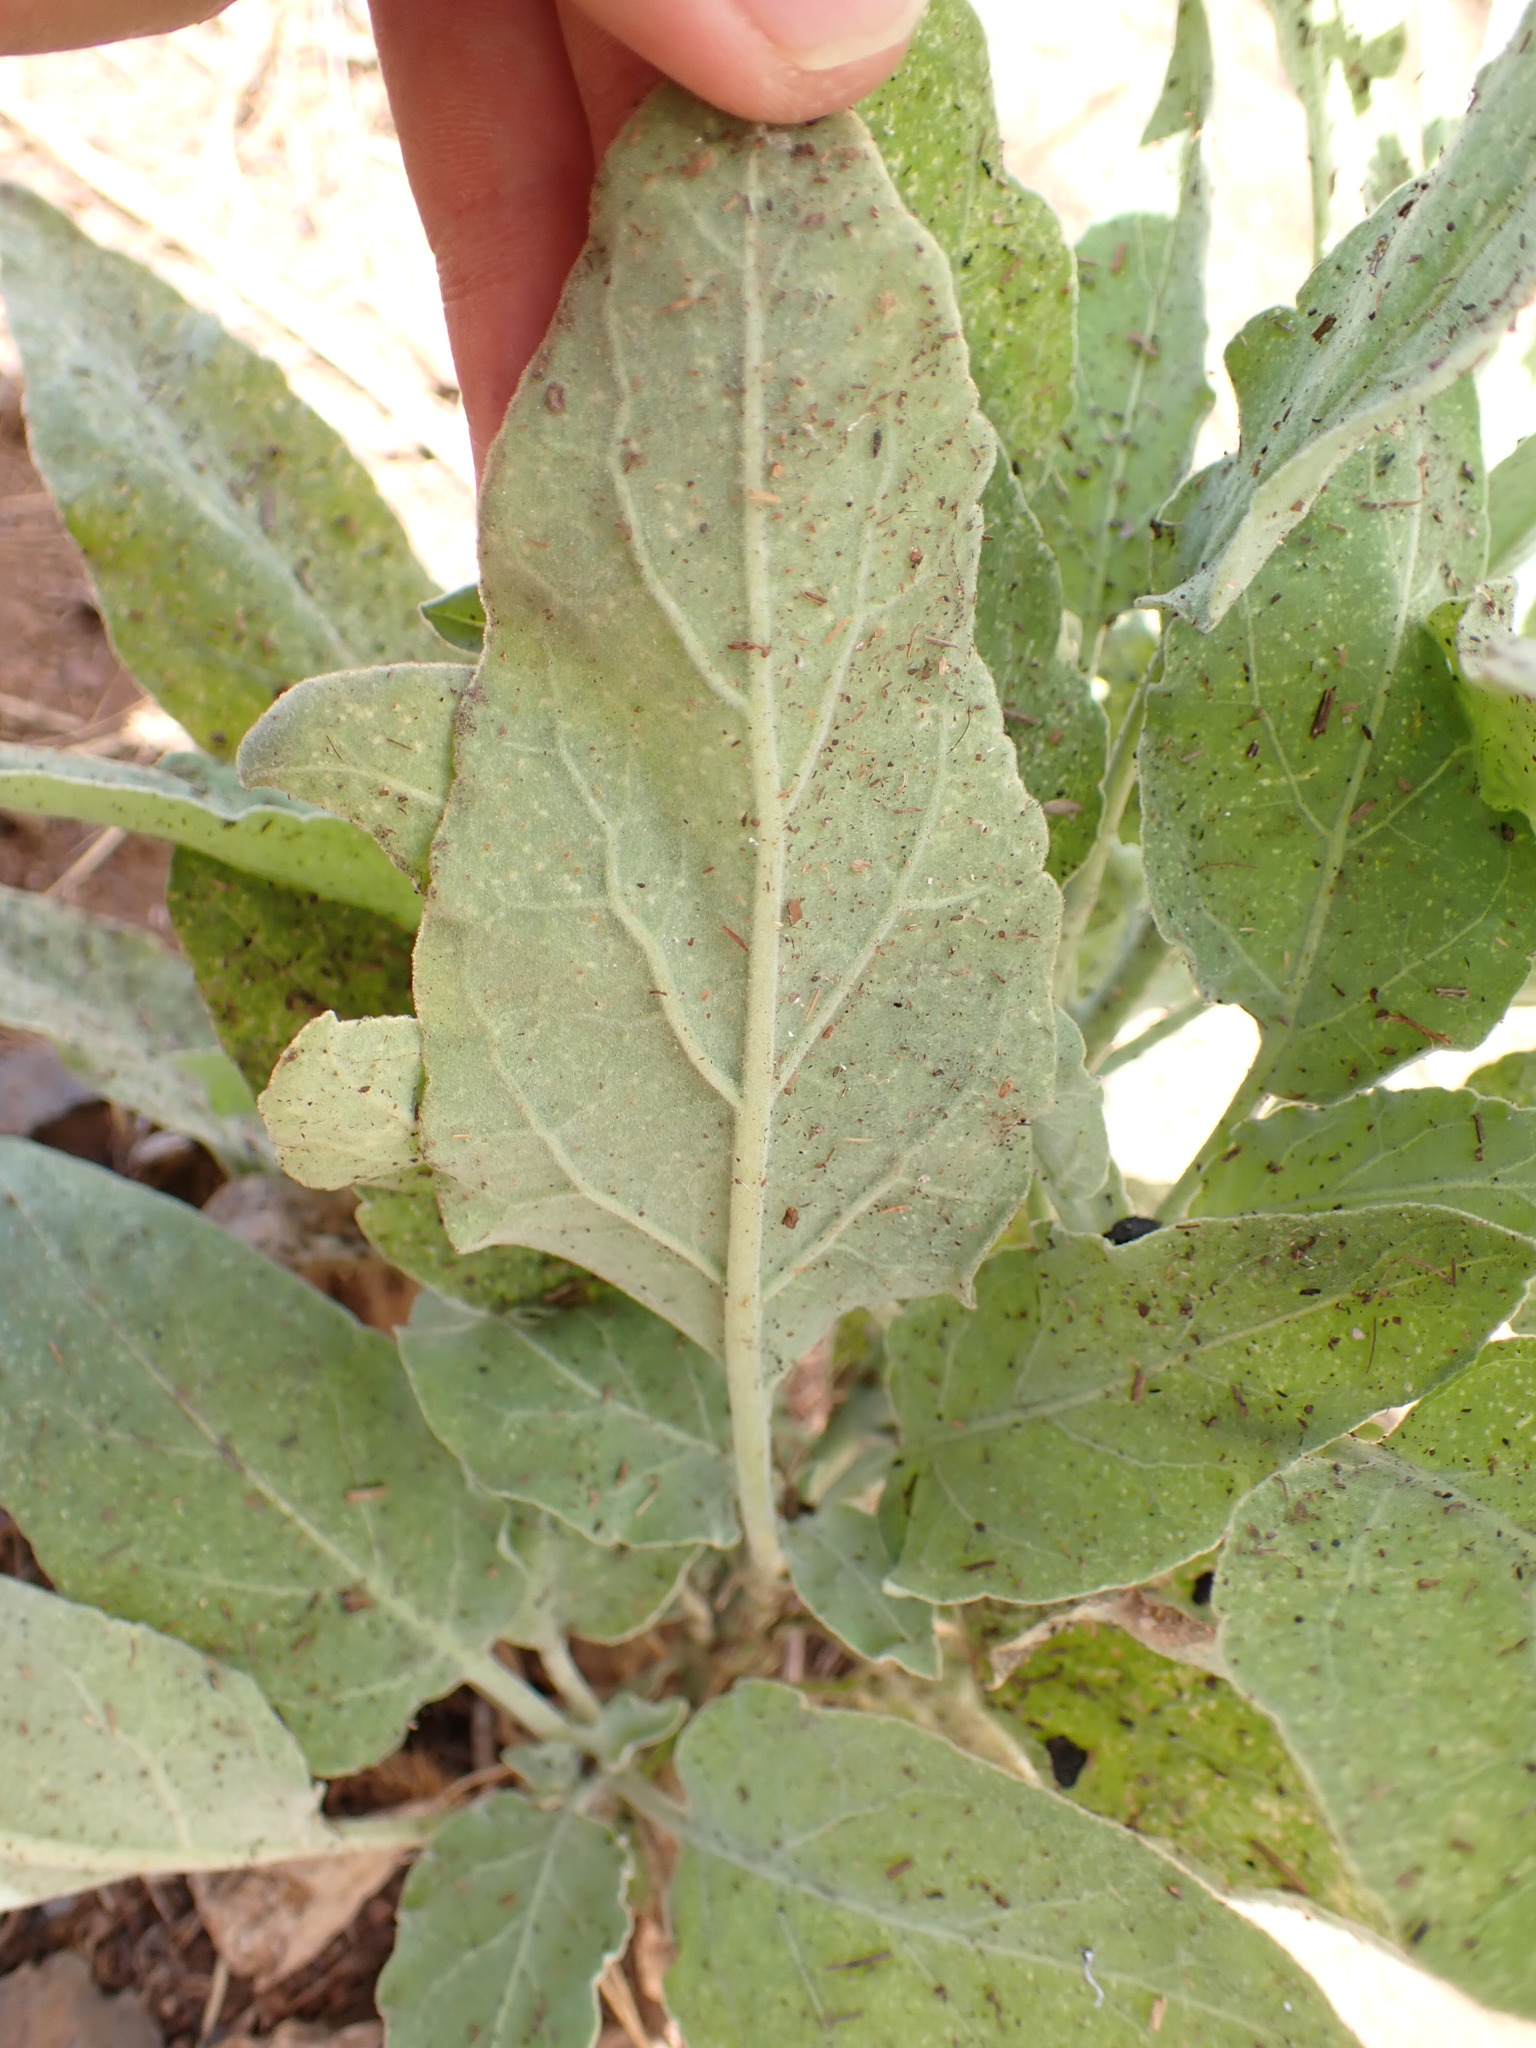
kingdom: Plantae
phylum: Tracheophyta
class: Magnoliopsida
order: Solanales
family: Solanaceae
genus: Nicotiana
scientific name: Nicotiana paniculata
